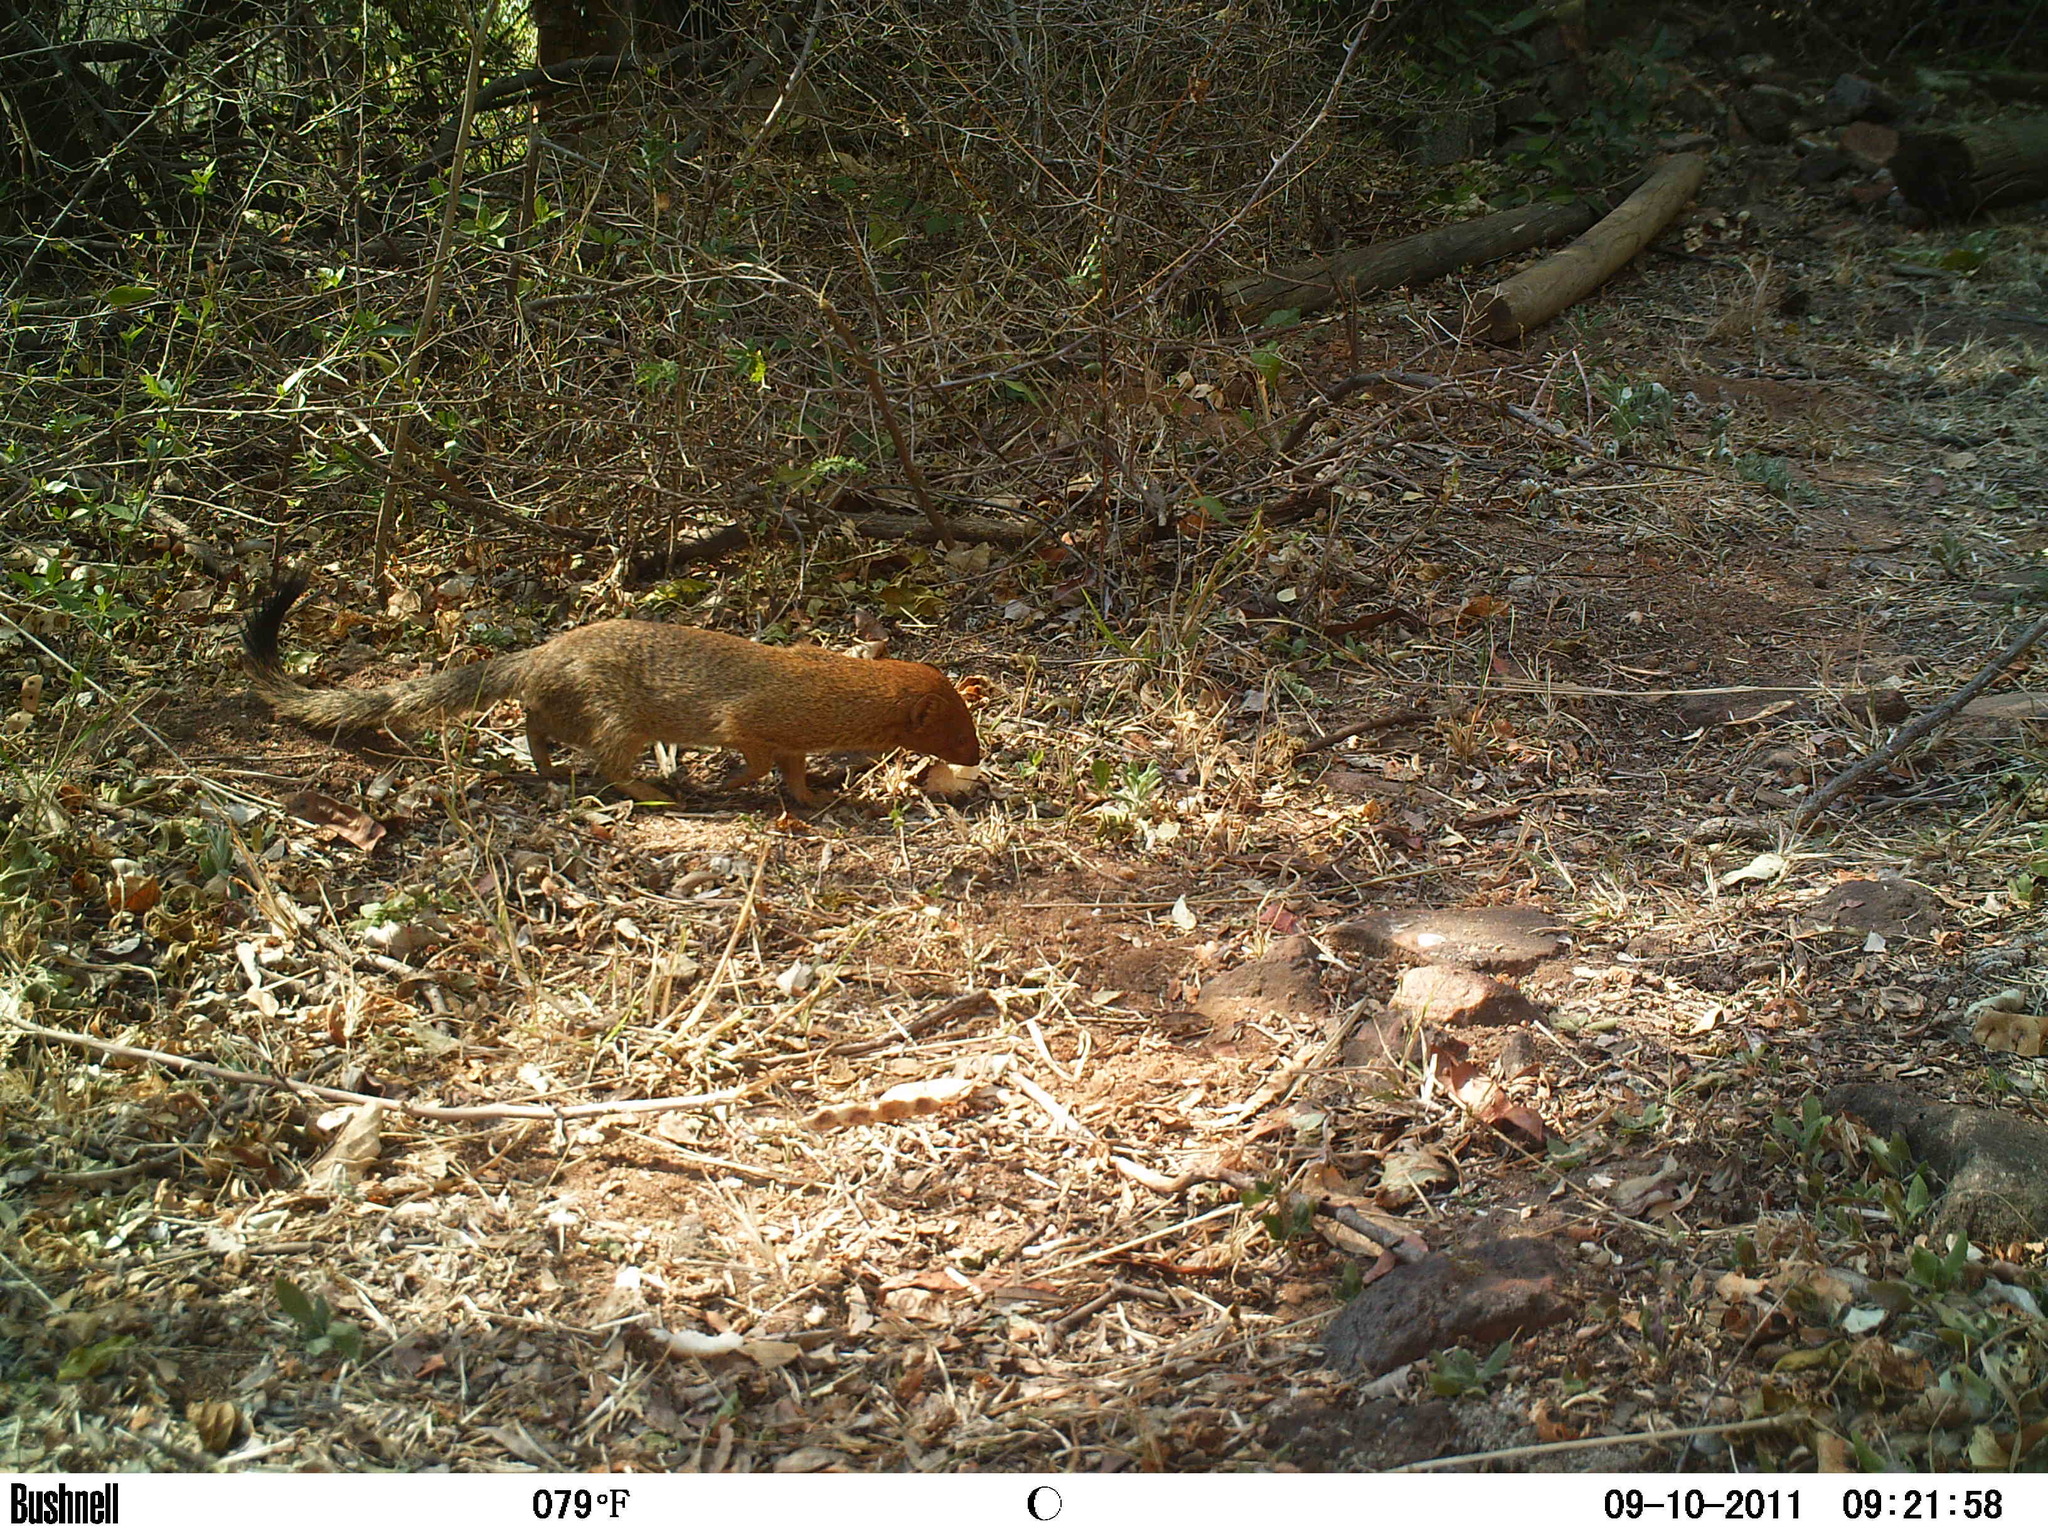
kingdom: Animalia
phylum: Chordata
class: Mammalia
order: Carnivora
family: Herpestidae
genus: Galerella
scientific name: Galerella sanguinea
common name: Slender mongoose
